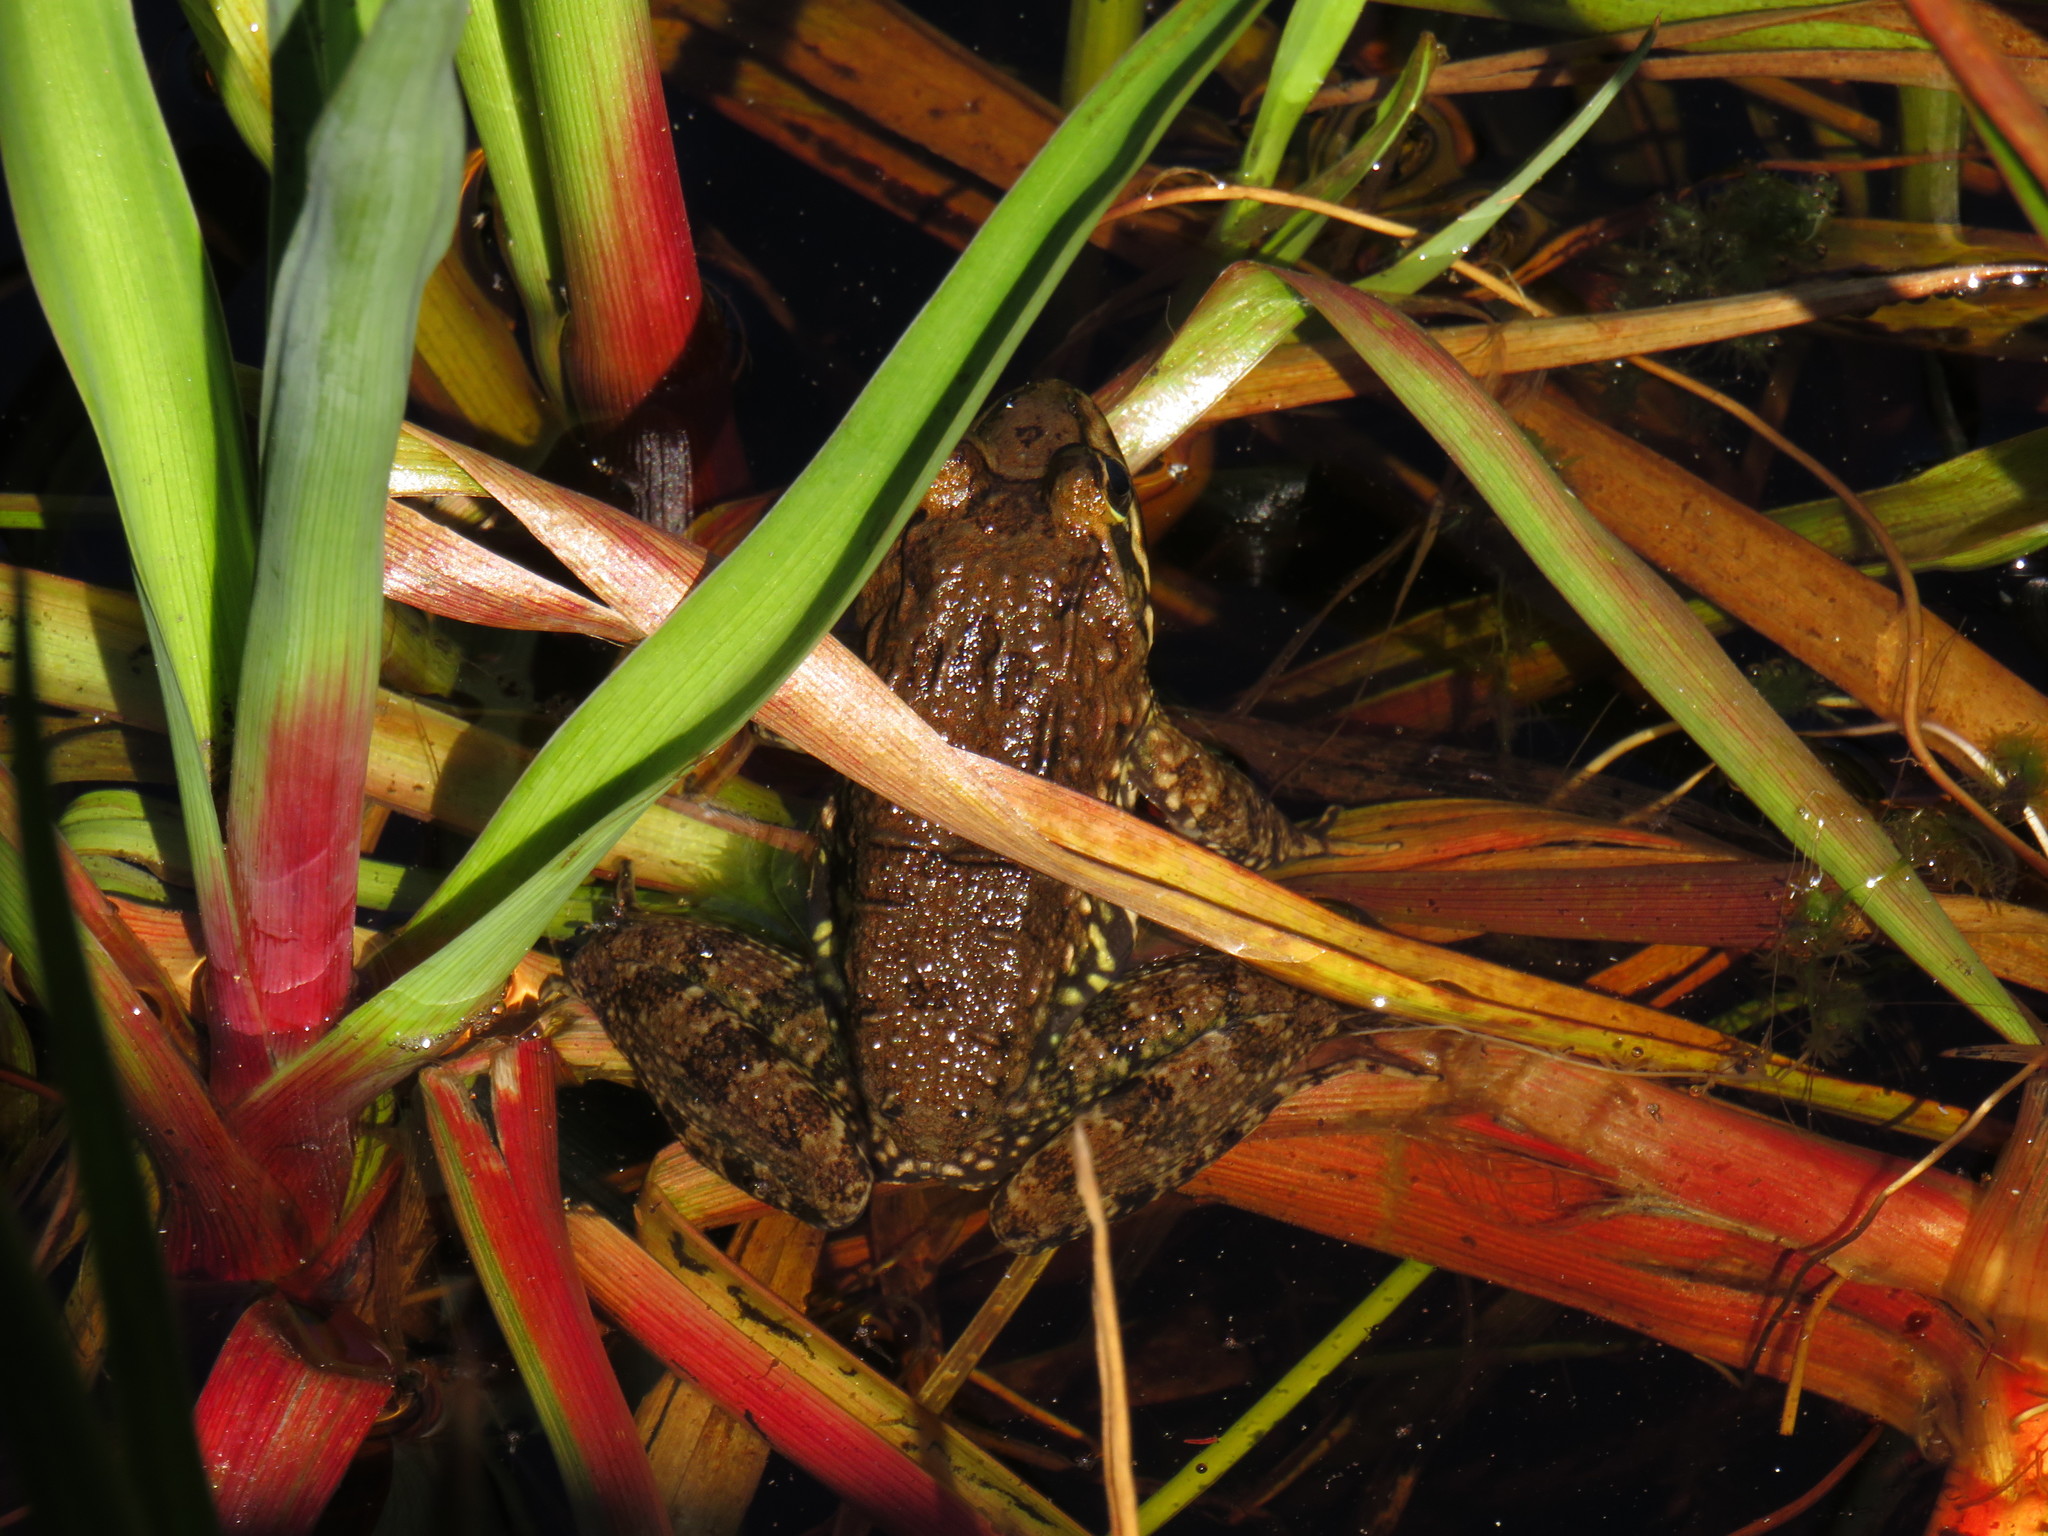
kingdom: Animalia
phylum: Chordata
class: Amphibia
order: Anura
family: Pyxicephalidae
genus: Amietia
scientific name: Amietia fuscigula
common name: Cape rana
